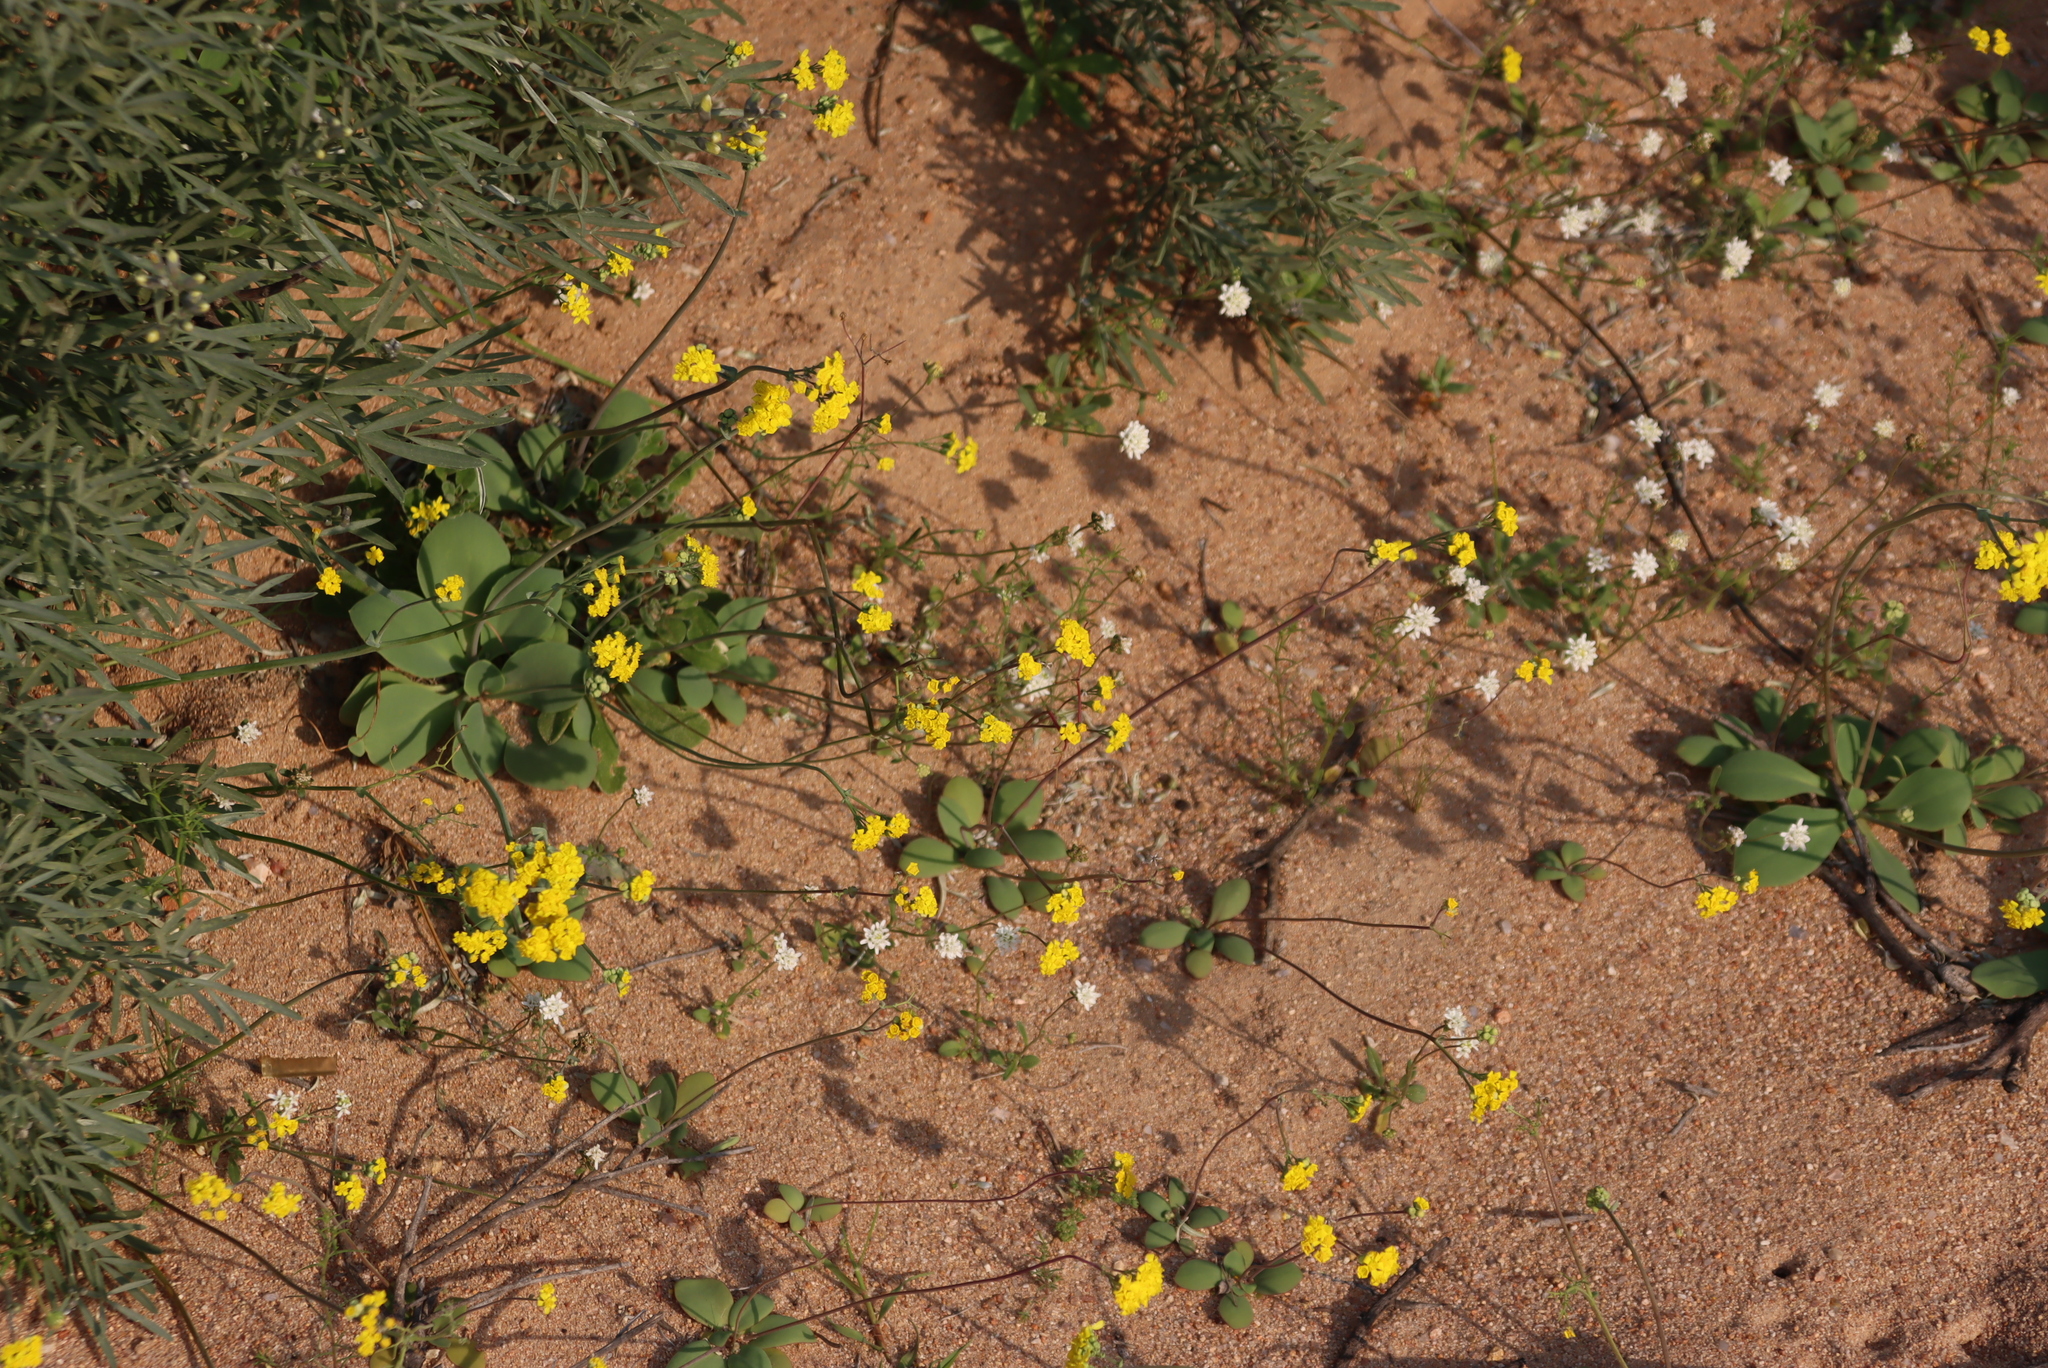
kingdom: Plantae
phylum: Tracheophyta
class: Magnoliopsida
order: Asterales
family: Asteraceae
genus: Gymnodiscus
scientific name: Gymnodiscus capillaris
